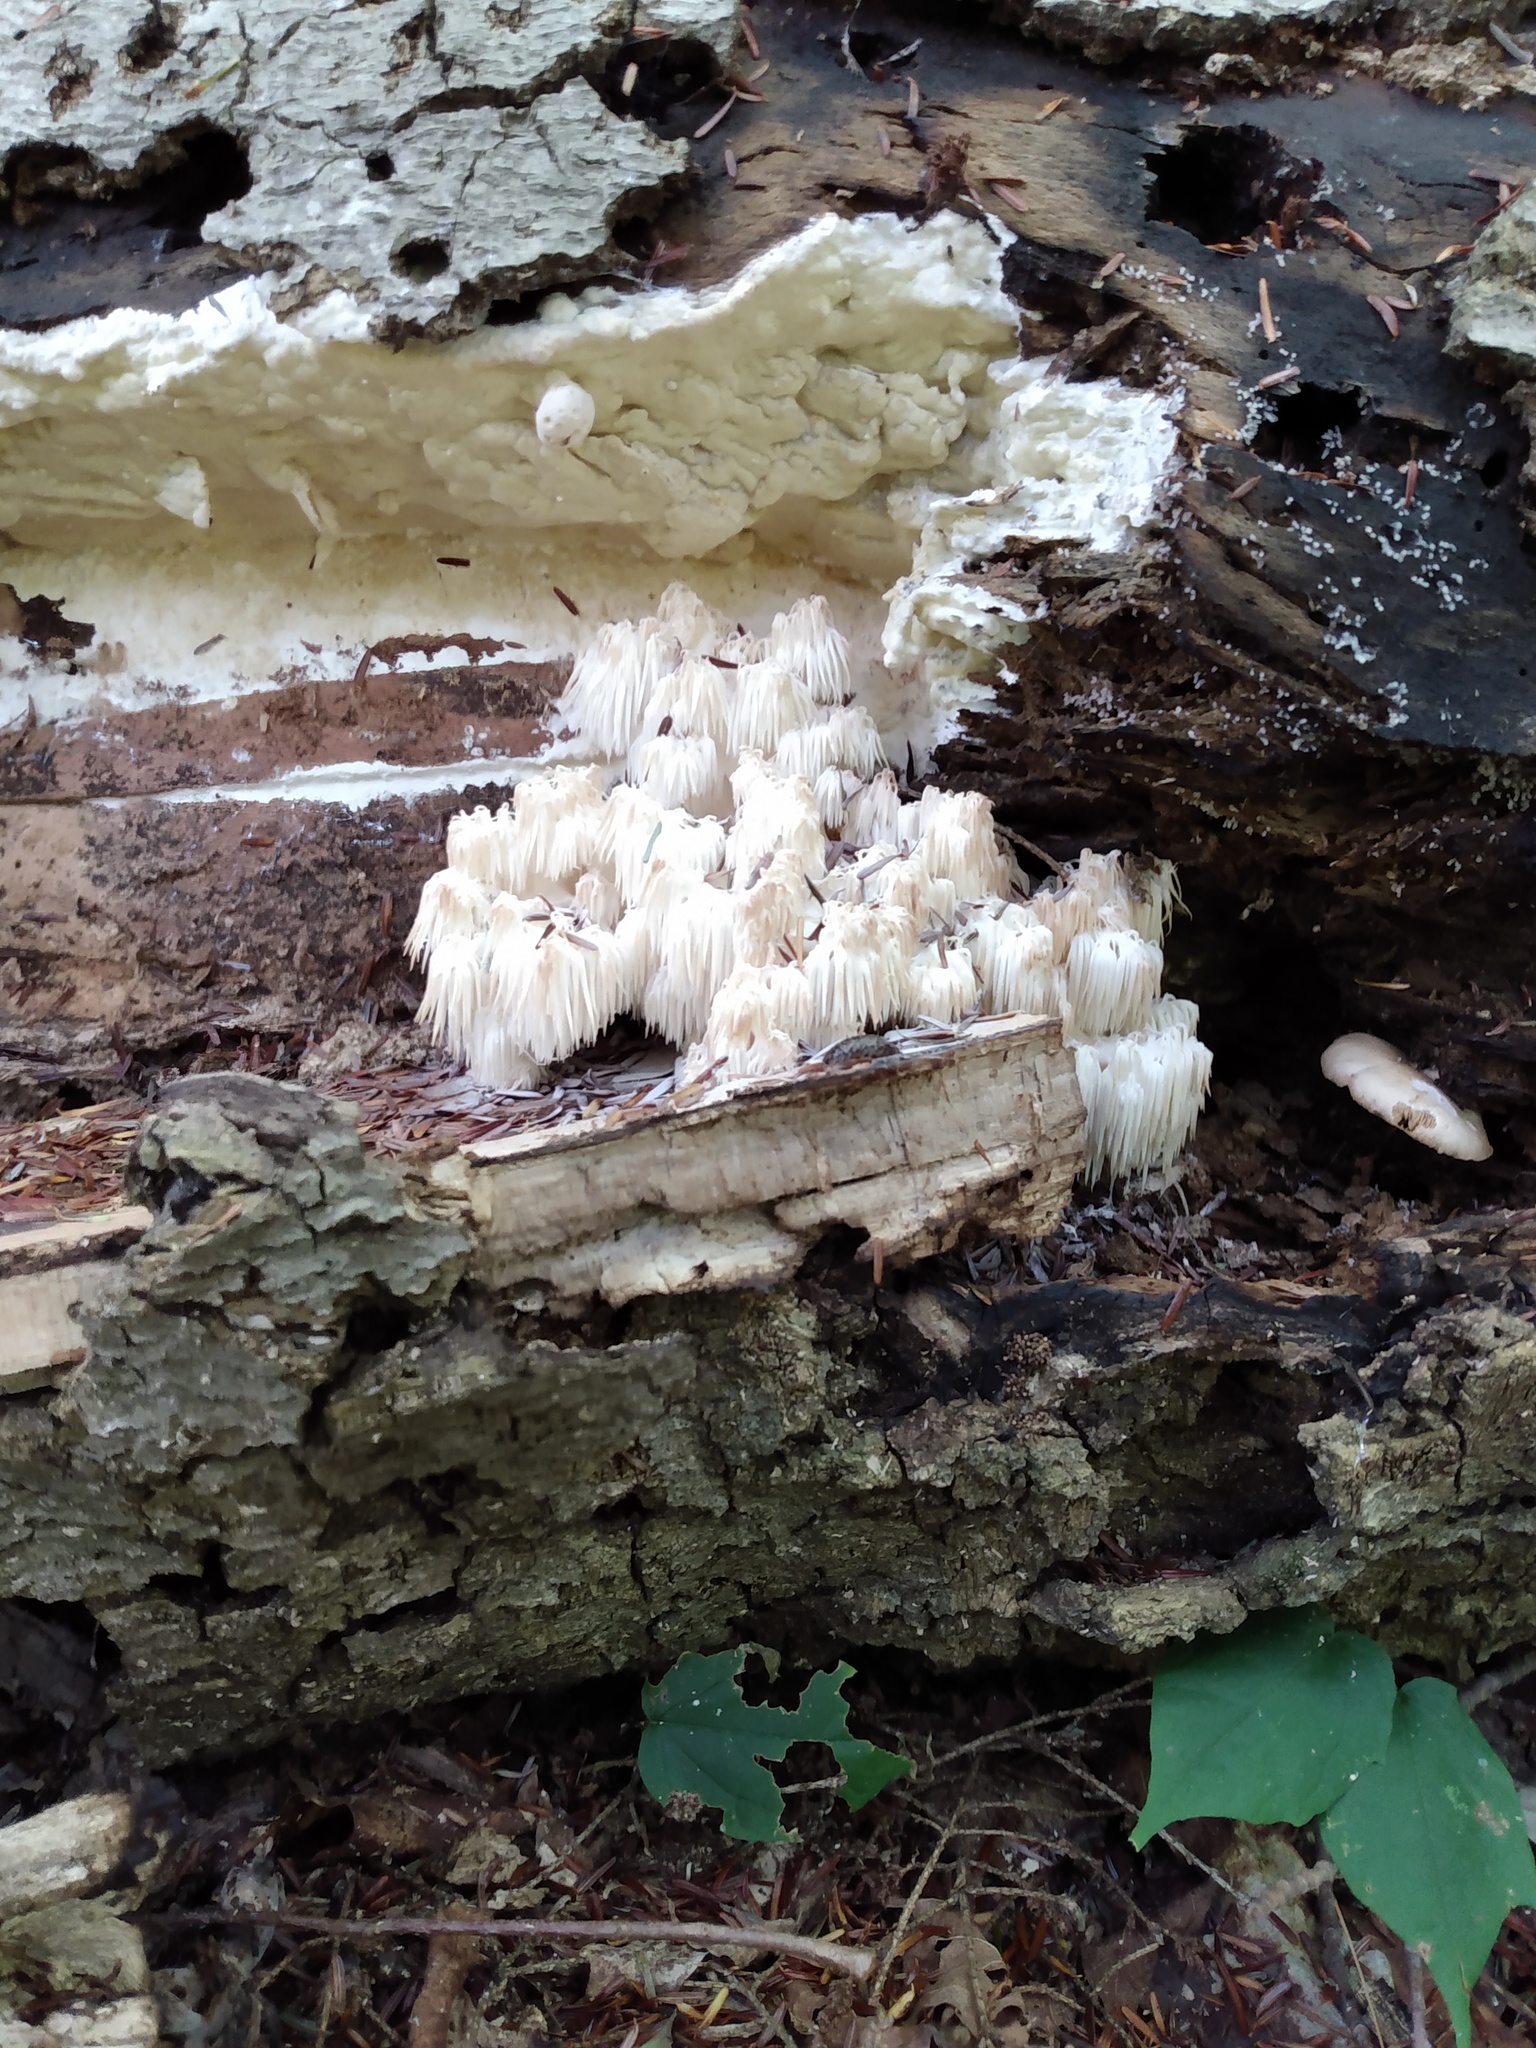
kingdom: Fungi
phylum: Basidiomycota
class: Agaricomycetes
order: Russulales
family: Hericiaceae
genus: Hericium
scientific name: Hericium americanum
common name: Bear's head tooth
